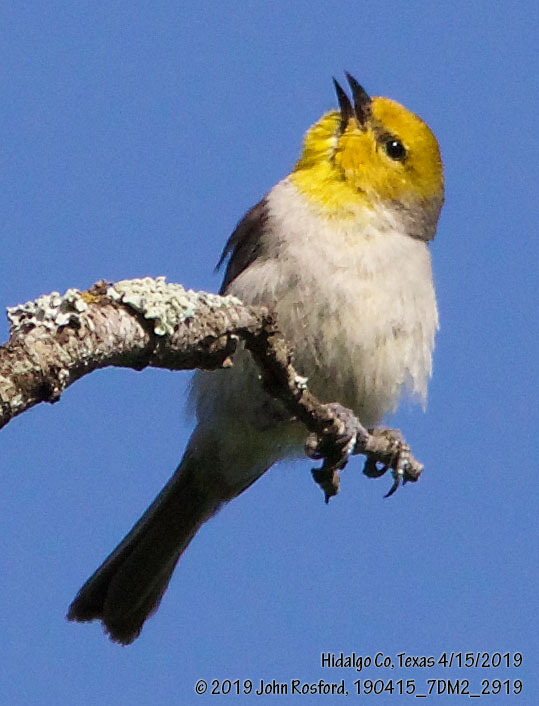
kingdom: Animalia
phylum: Chordata
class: Aves
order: Passeriformes
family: Remizidae
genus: Auriparus
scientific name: Auriparus flaviceps
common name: Verdin
